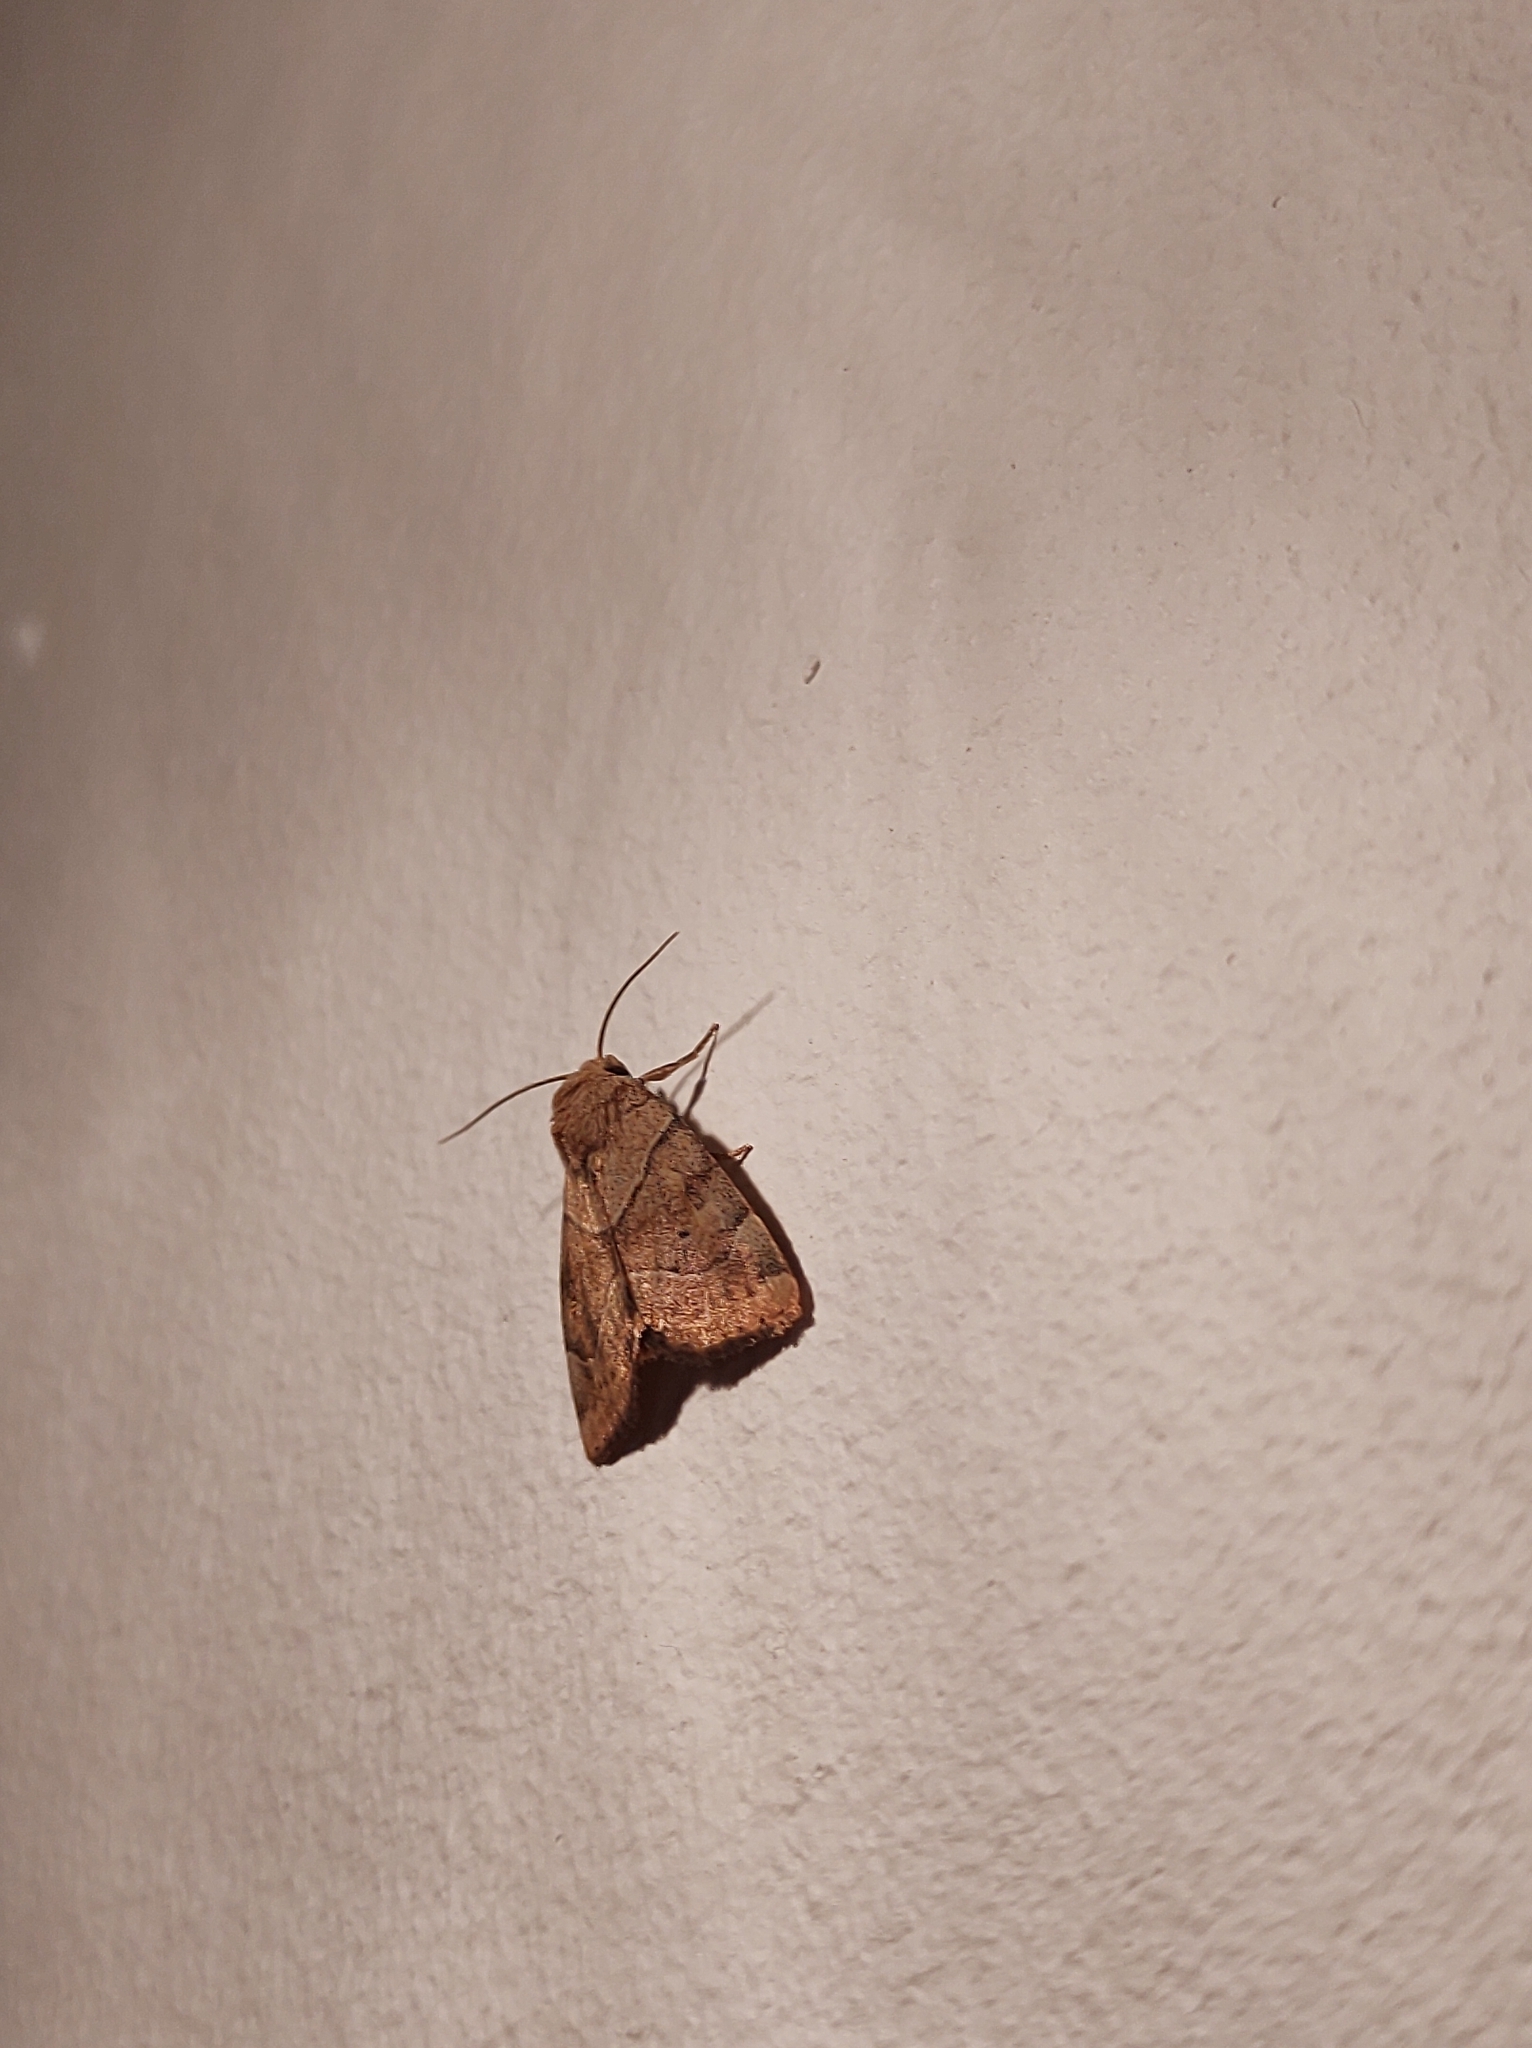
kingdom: Animalia
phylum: Arthropoda
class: Insecta
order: Lepidoptera
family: Noctuidae
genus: Cosmia
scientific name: Cosmia trapezina
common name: Dun-bar
